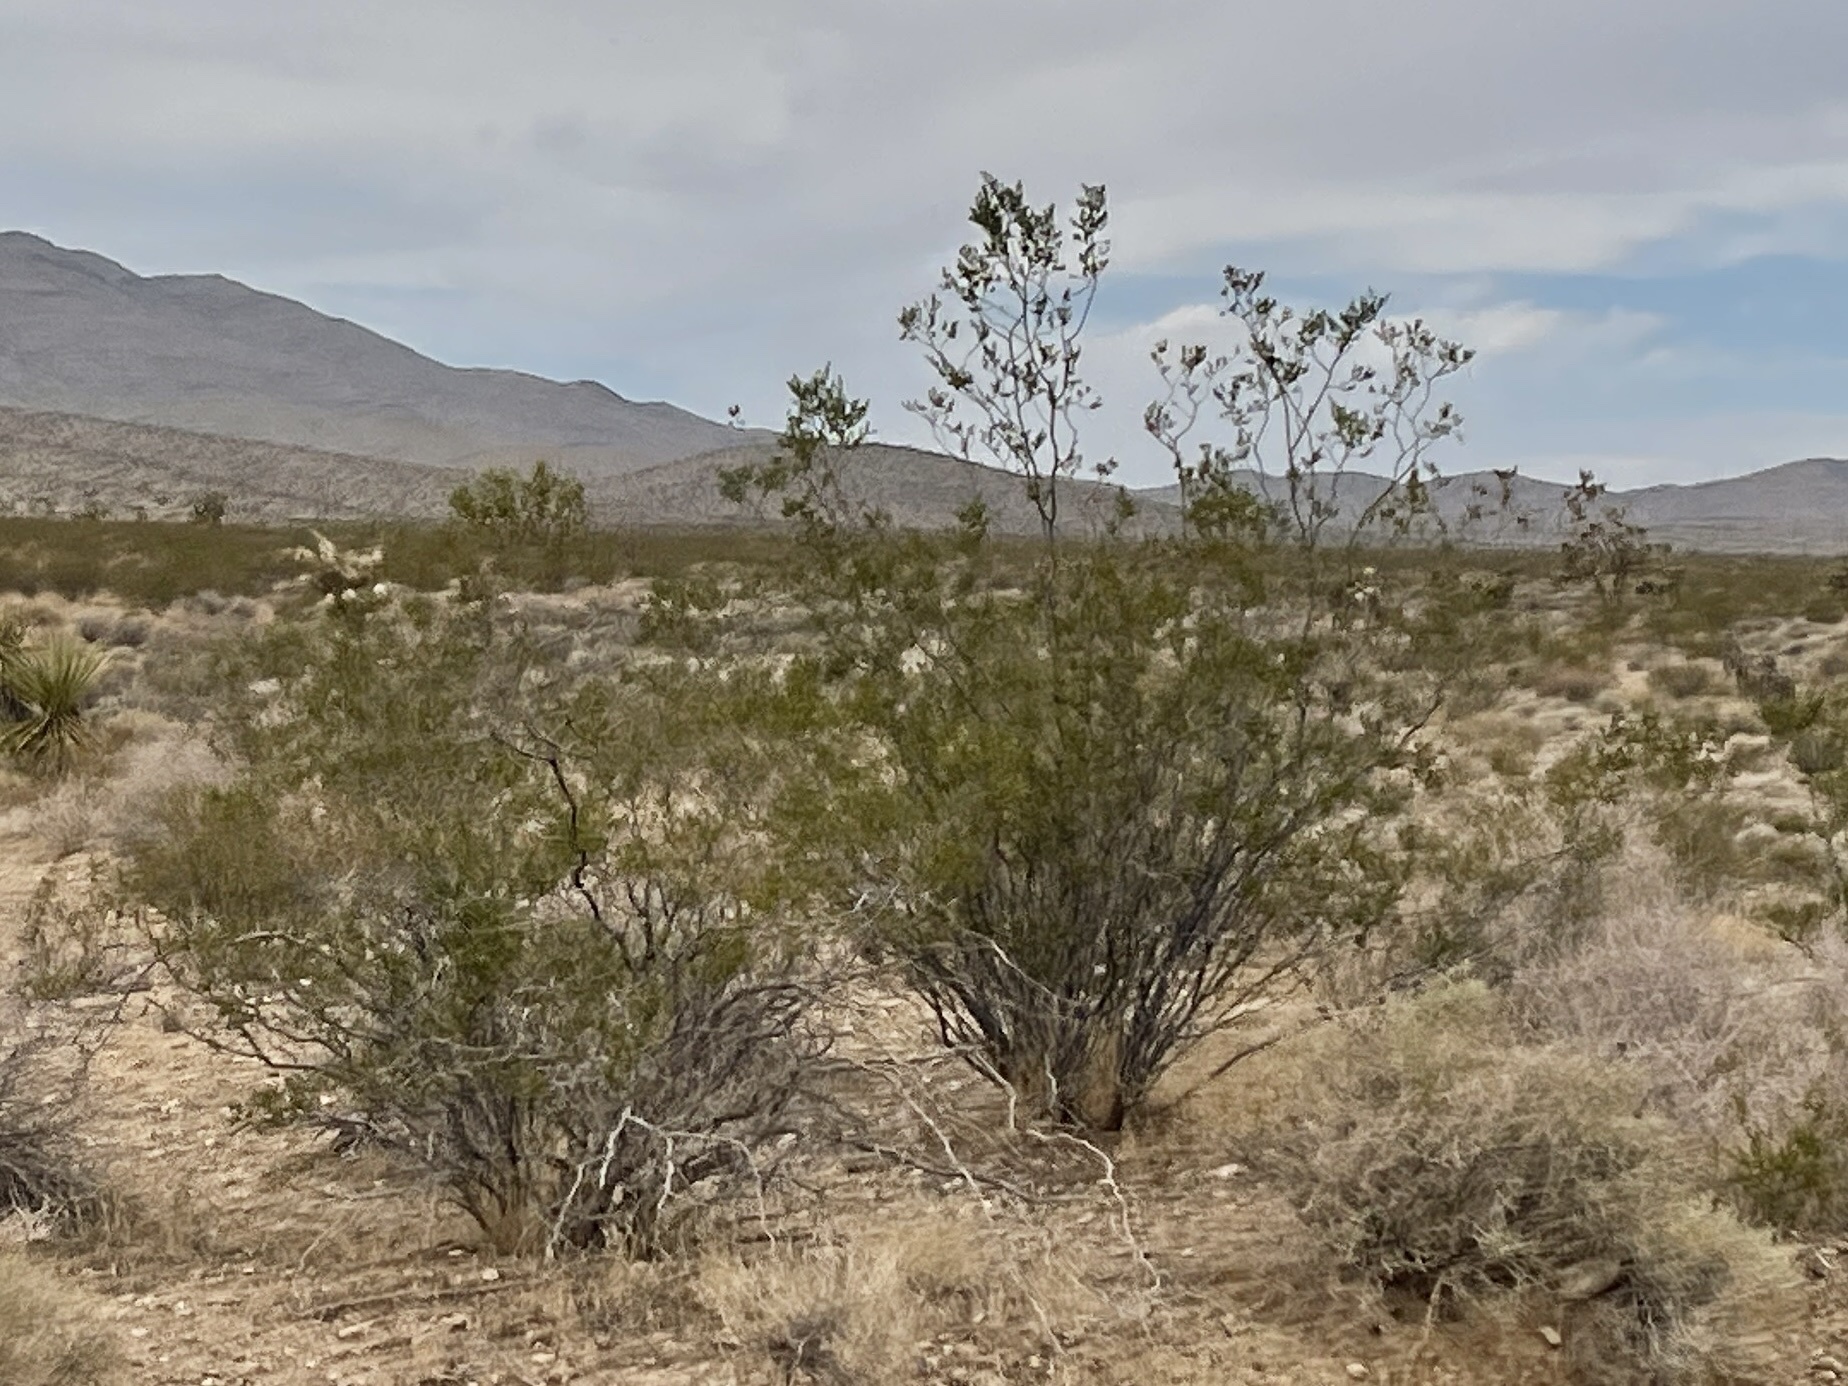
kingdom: Plantae
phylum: Tracheophyta
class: Magnoliopsida
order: Zygophyllales
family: Zygophyllaceae
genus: Larrea
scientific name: Larrea tridentata
